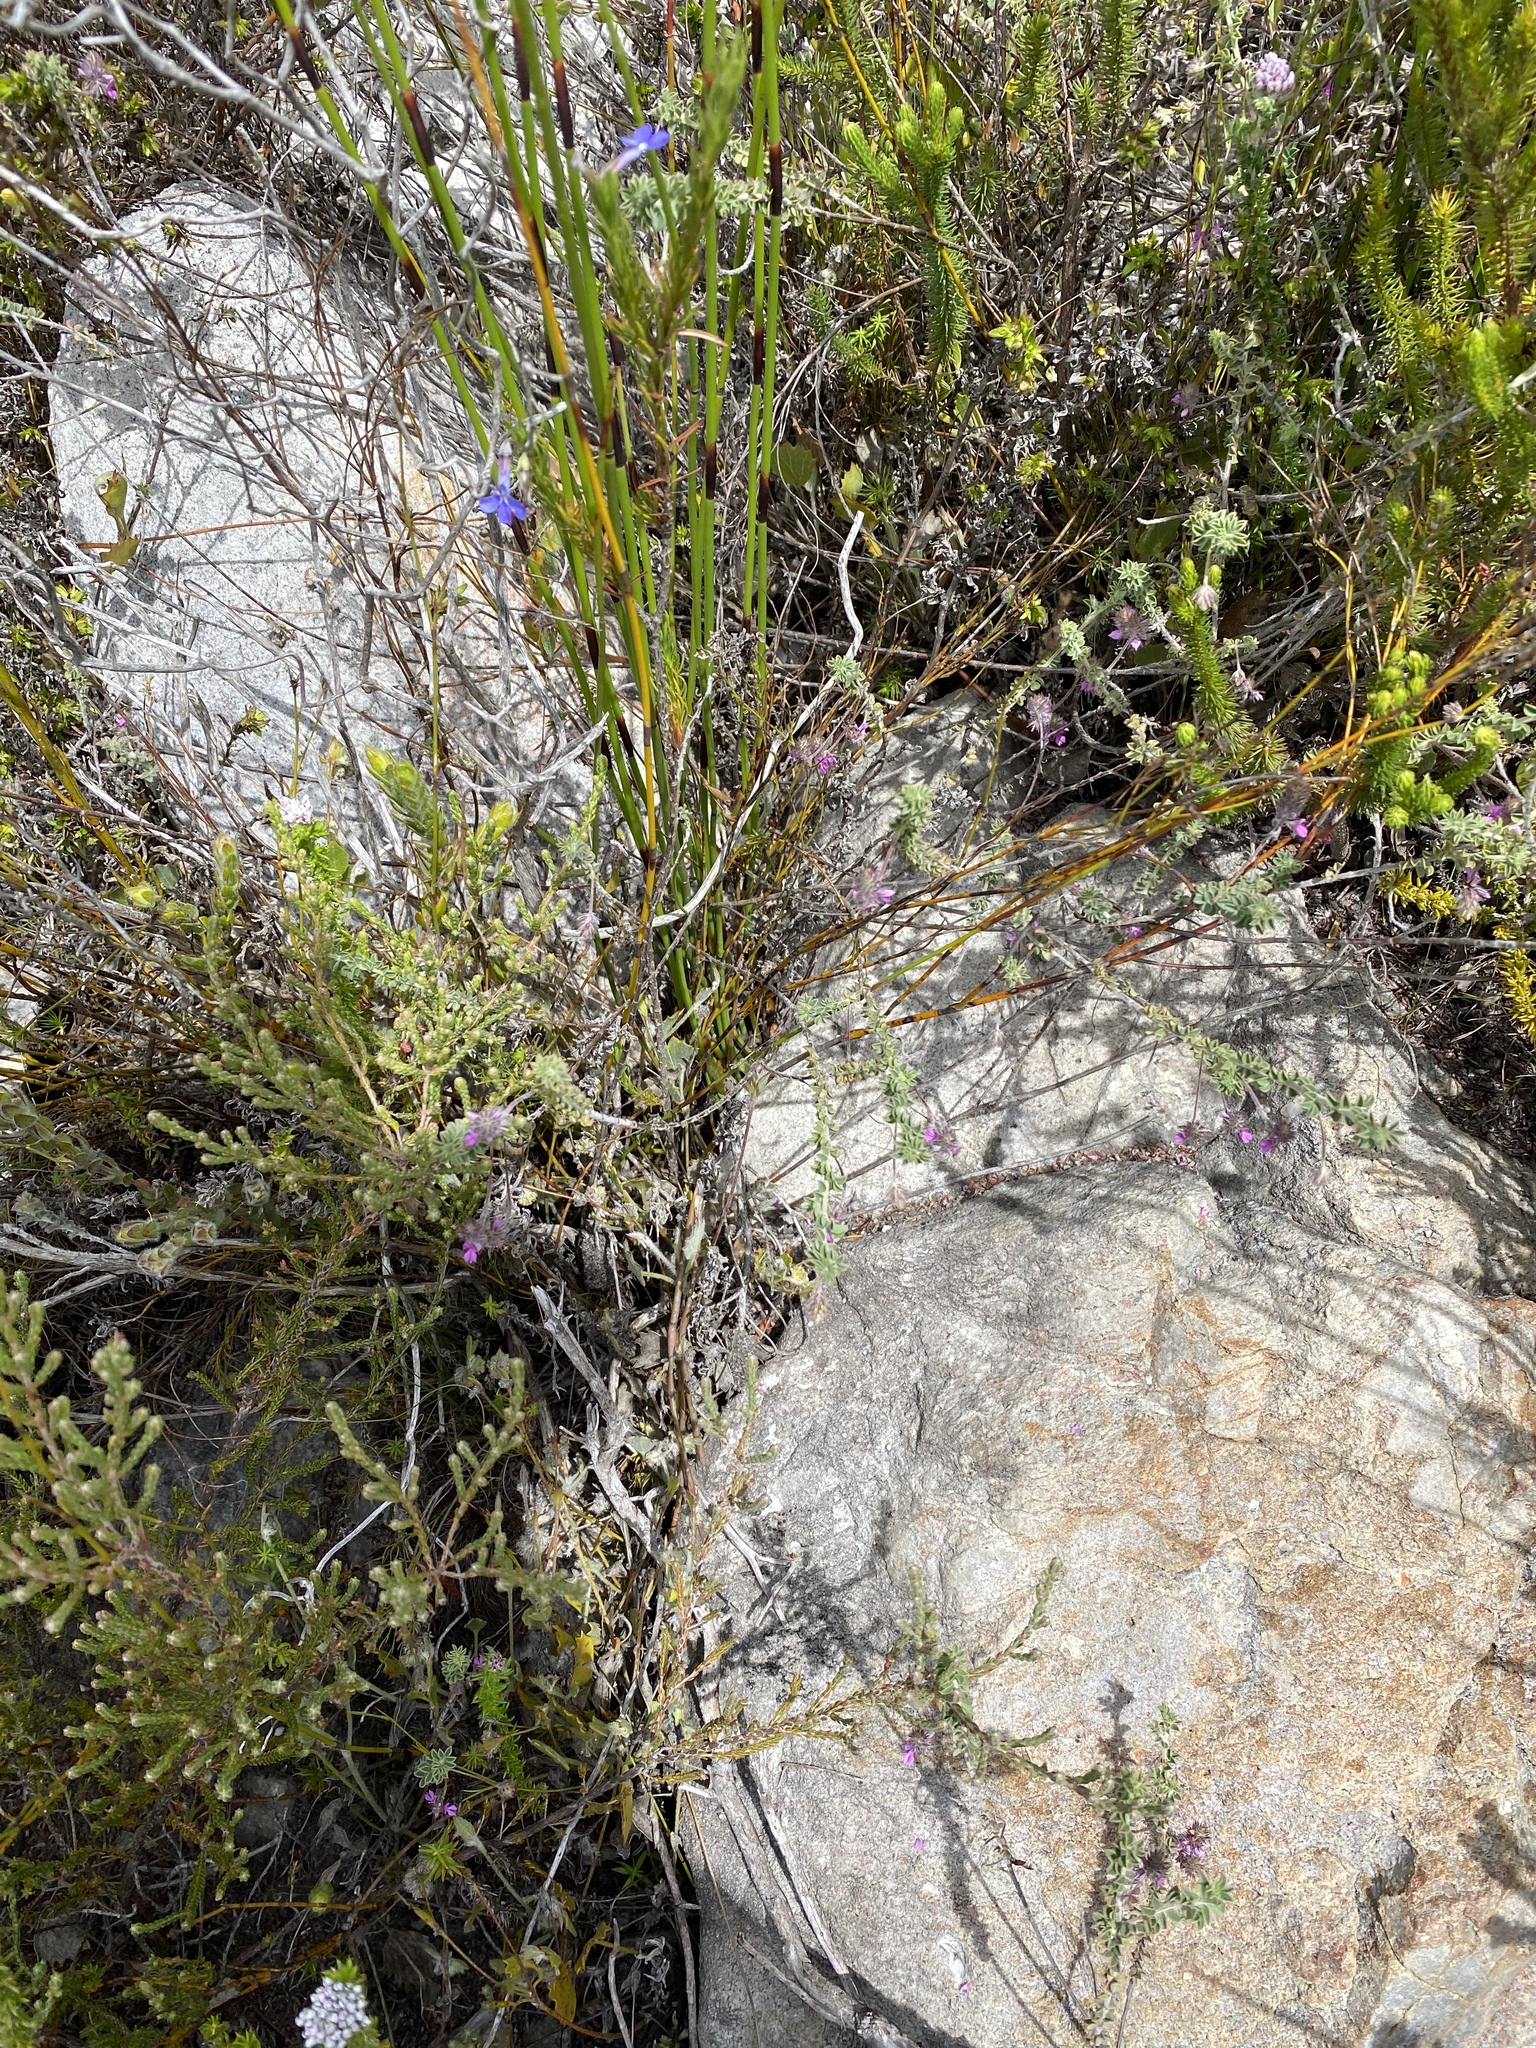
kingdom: Plantae
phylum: Tracheophyta
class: Magnoliopsida
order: Fabales
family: Fabaceae
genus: Indigofera
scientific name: Indigofera alopecuroides
